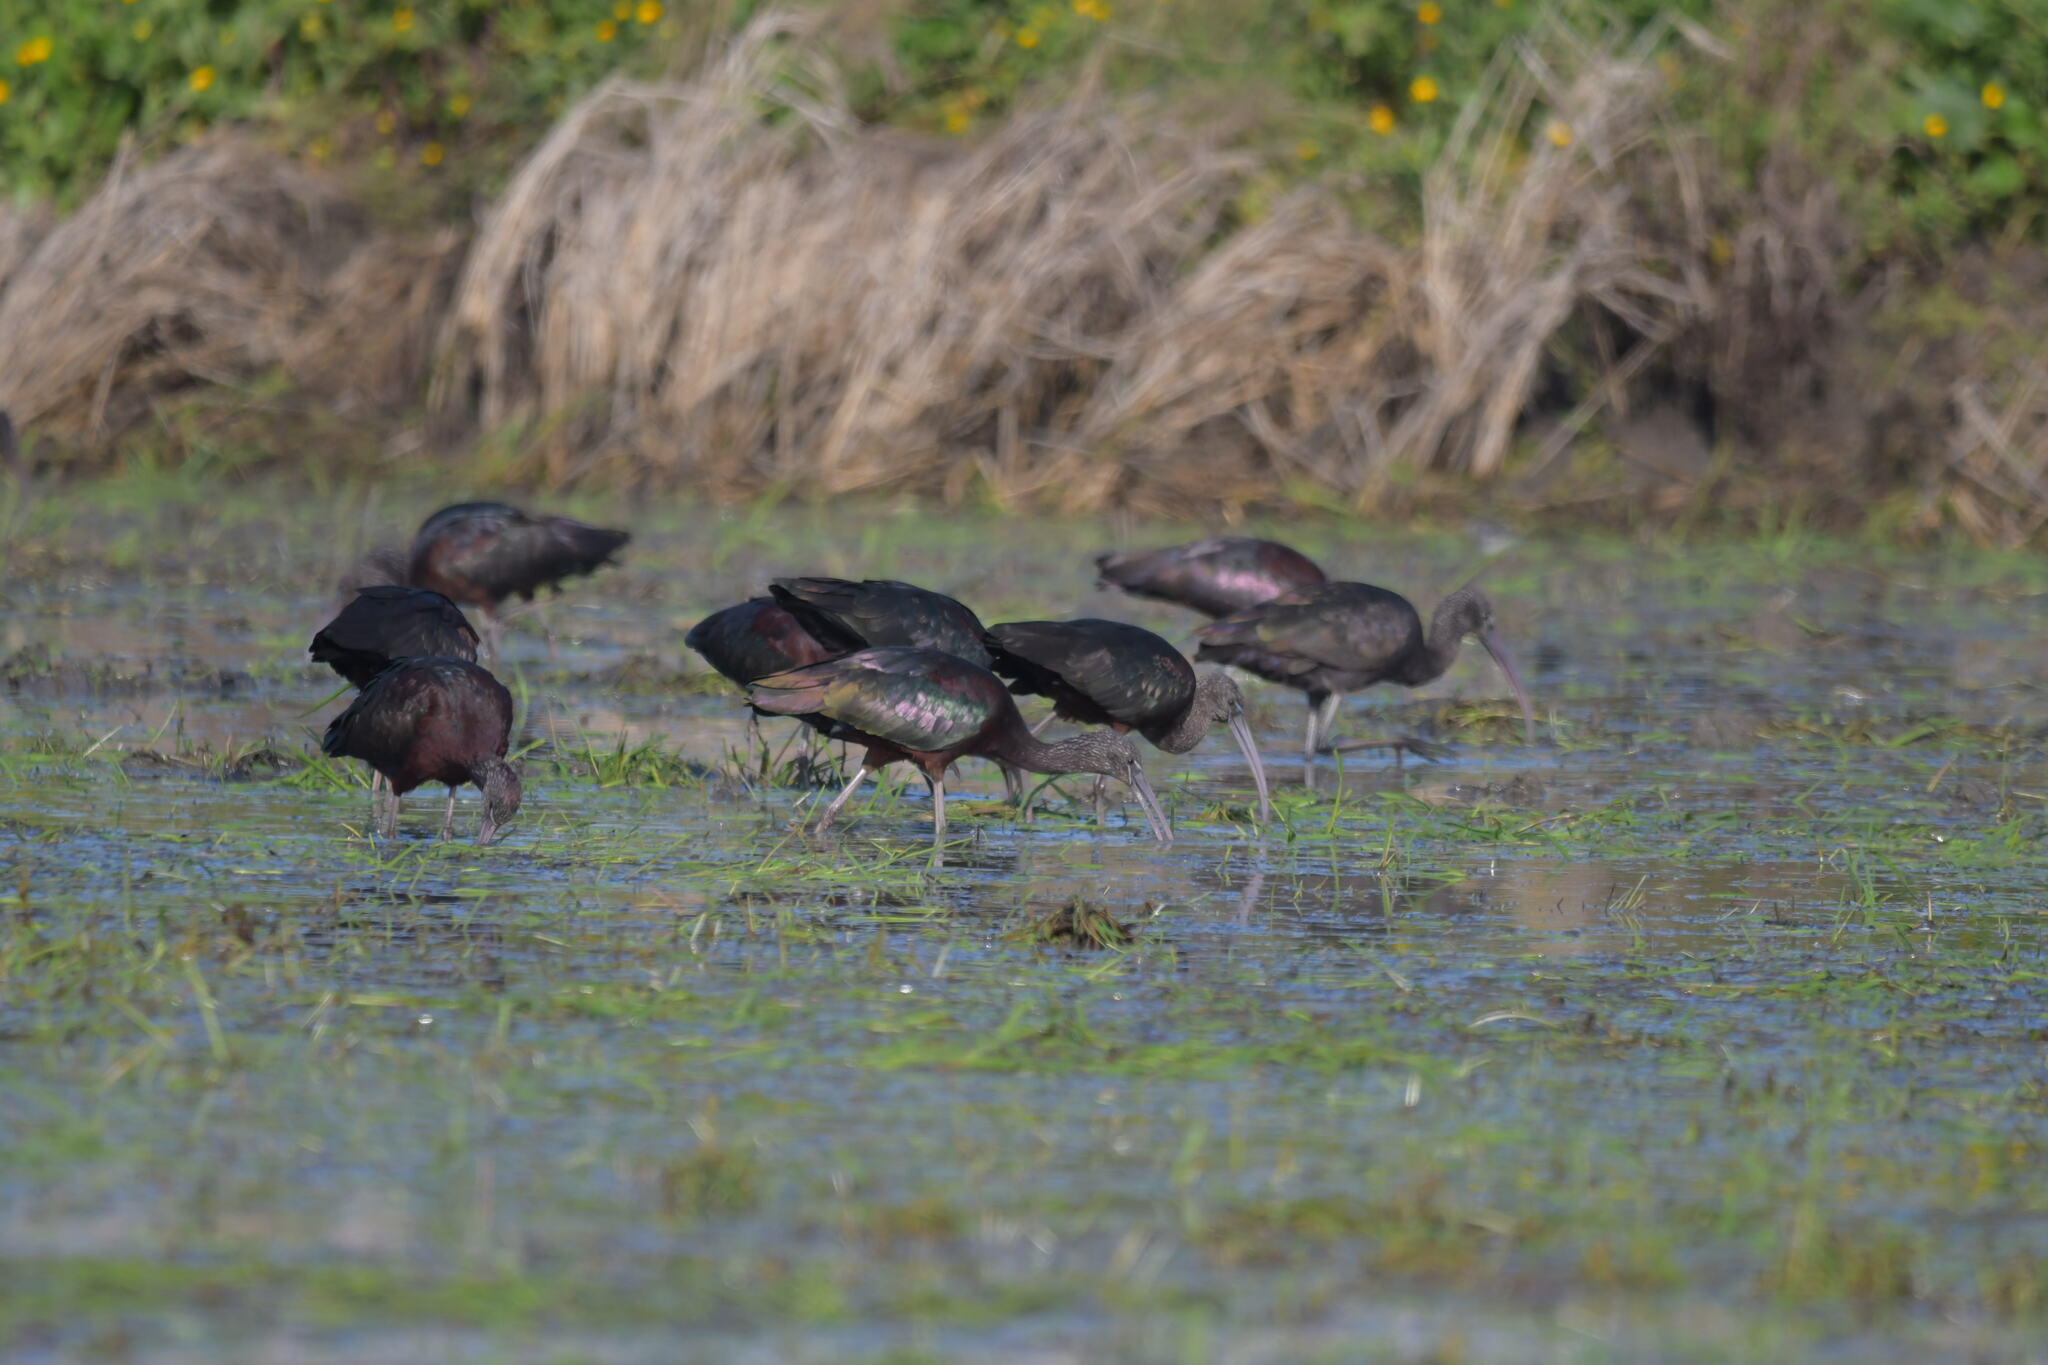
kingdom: Animalia
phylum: Chordata
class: Aves
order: Pelecaniformes
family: Threskiornithidae
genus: Plegadis
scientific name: Plegadis falcinellus
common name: Glossy ibis
